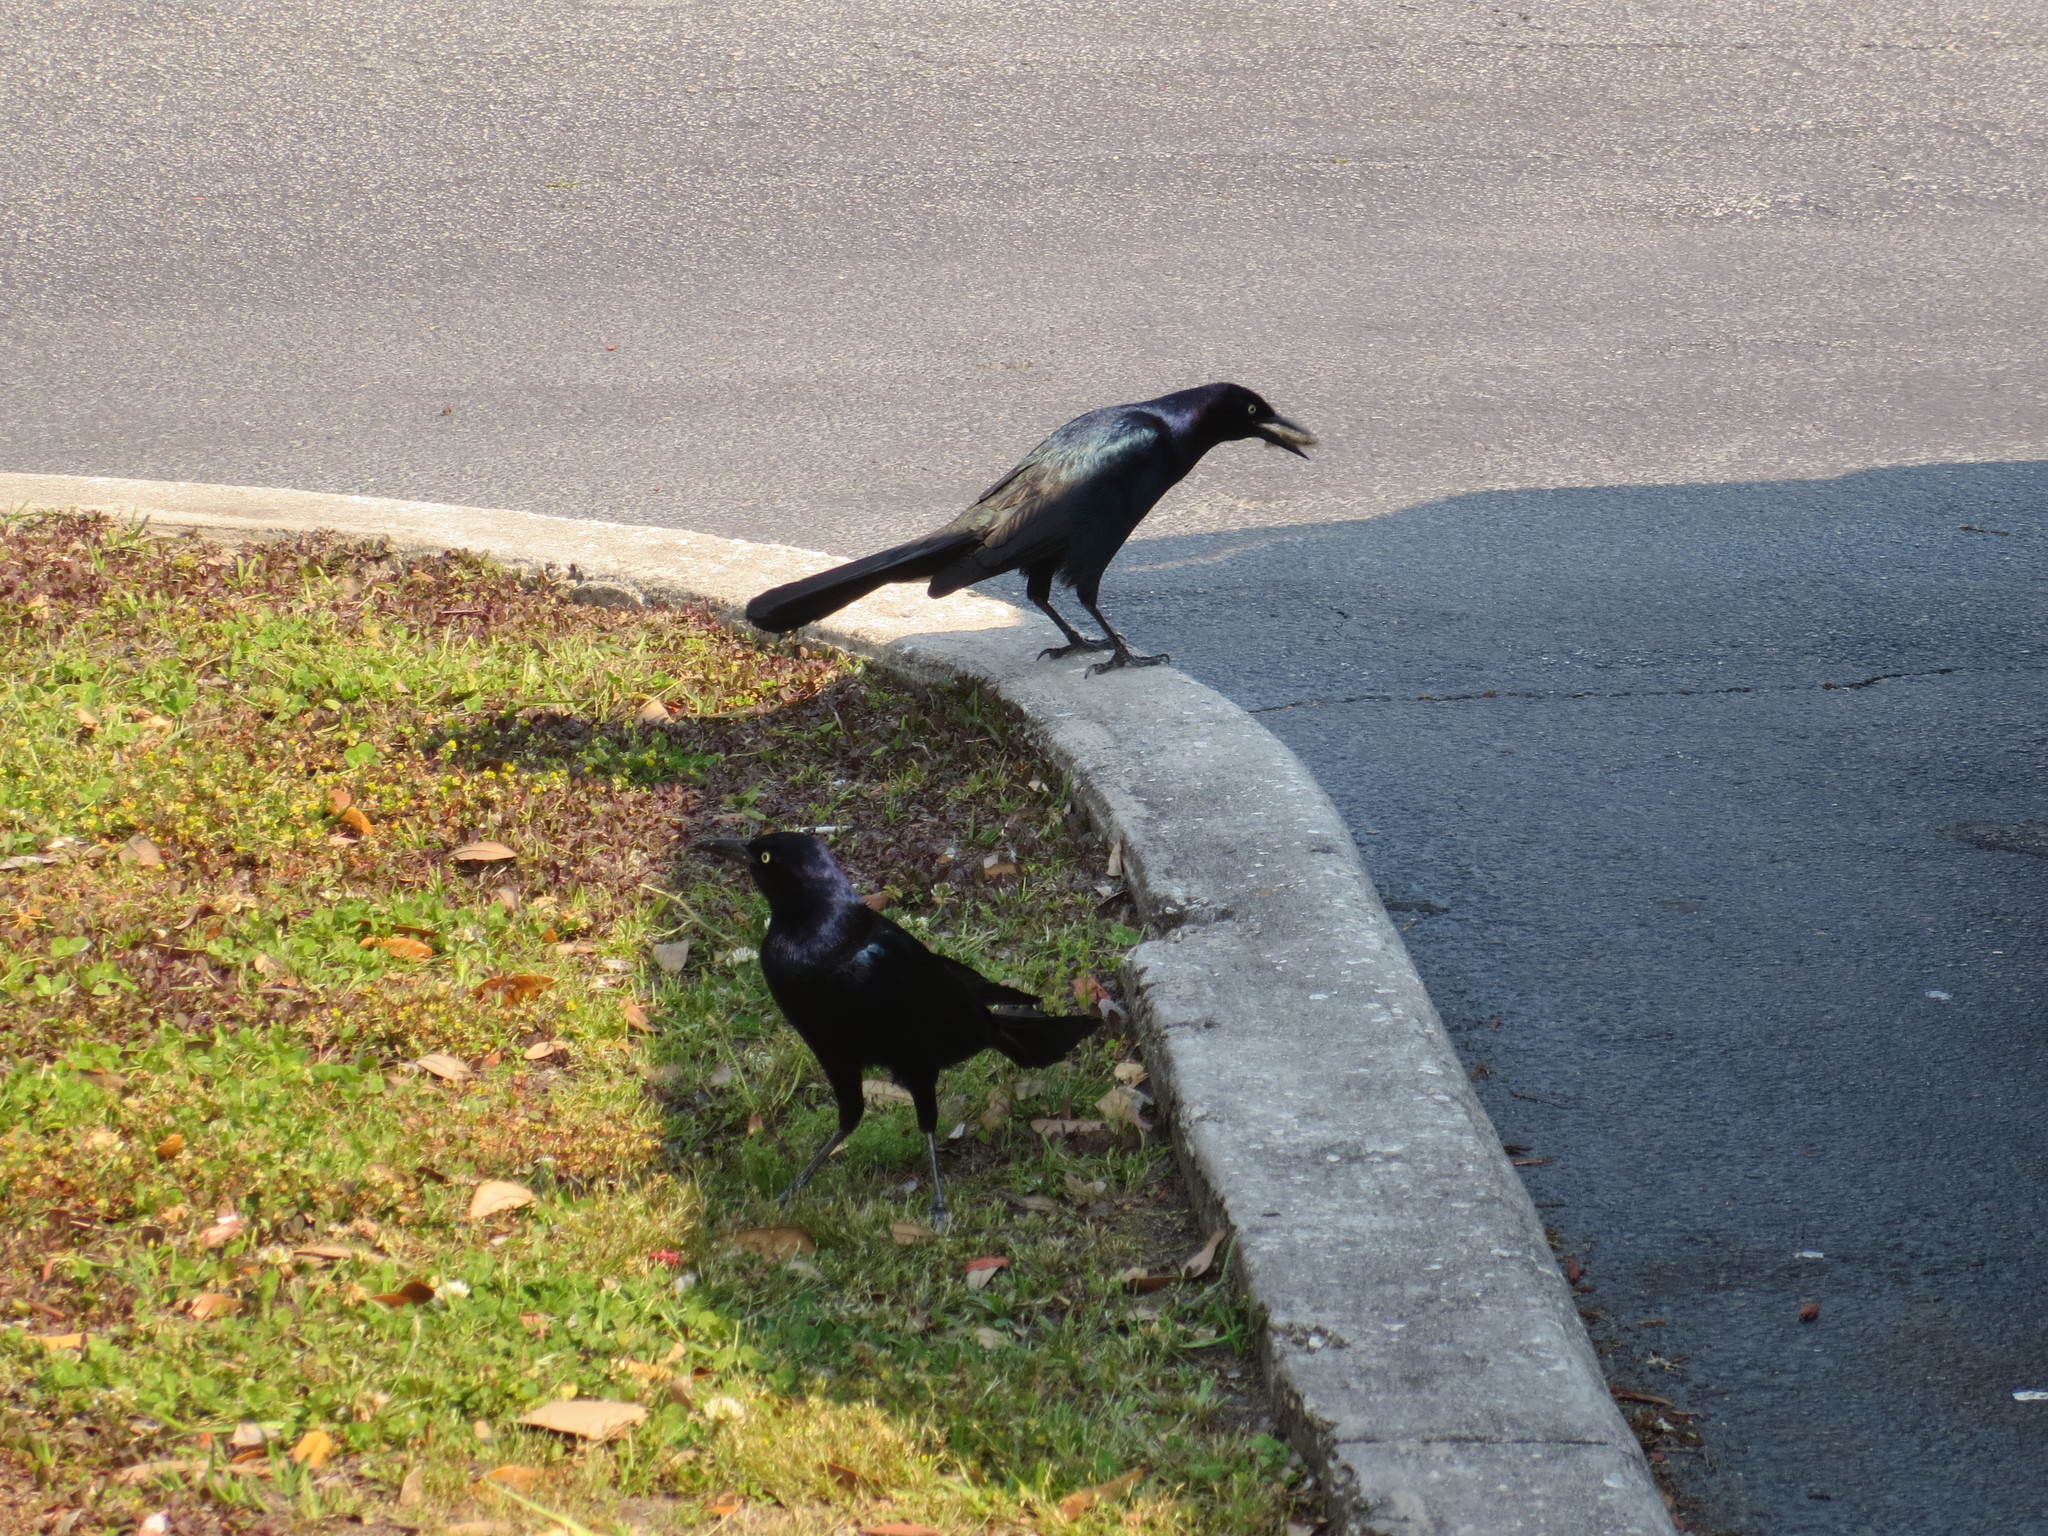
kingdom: Animalia
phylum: Chordata
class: Aves
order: Passeriformes
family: Icteridae
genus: Quiscalus
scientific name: Quiscalus major
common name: Boat-tailed grackle
